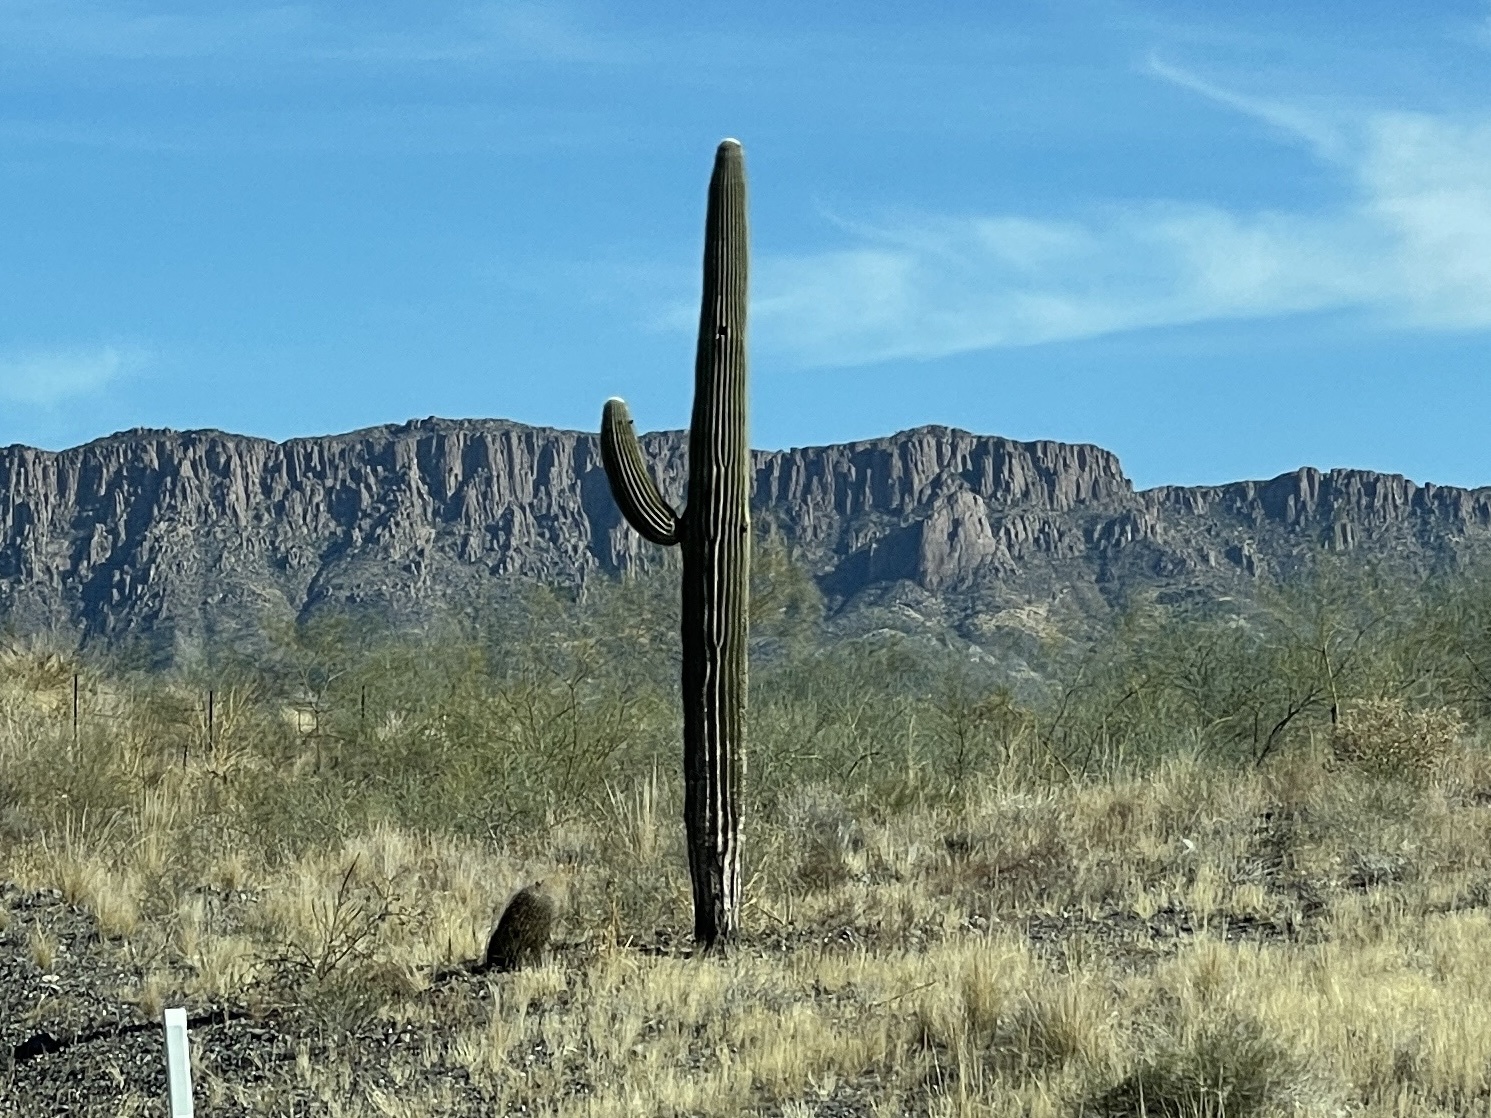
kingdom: Plantae
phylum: Tracheophyta
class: Magnoliopsida
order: Caryophyllales
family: Cactaceae
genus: Carnegiea
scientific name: Carnegiea gigantea
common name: Saguaro
